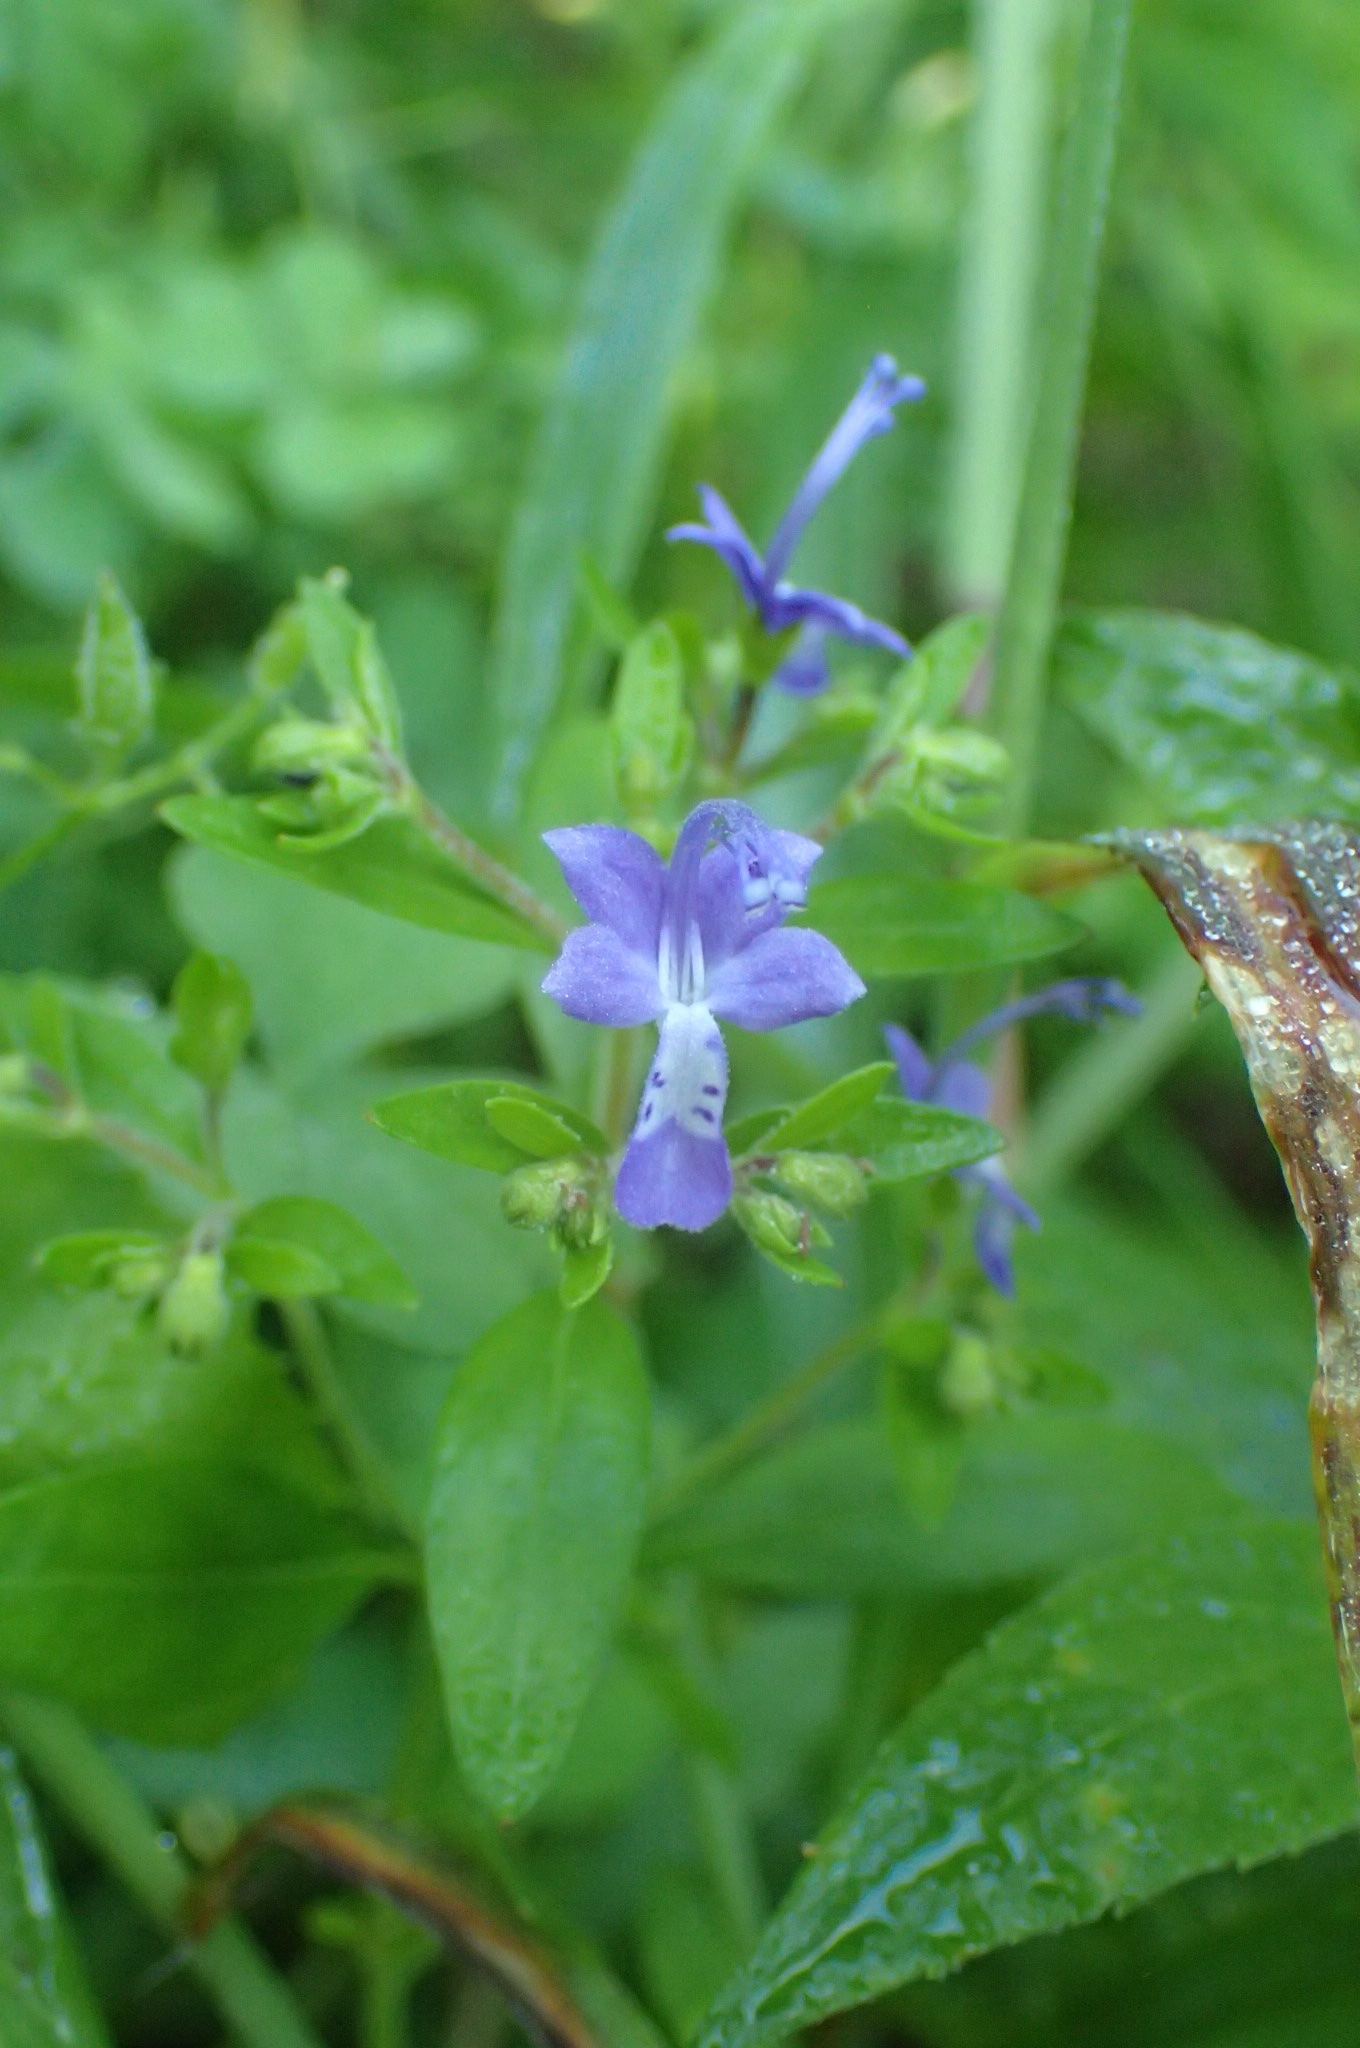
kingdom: Plantae
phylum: Tracheophyta
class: Magnoliopsida
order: Lamiales
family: Lamiaceae
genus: Trichostema
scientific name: Trichostema dichotomum
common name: Bastard pennyroyal
